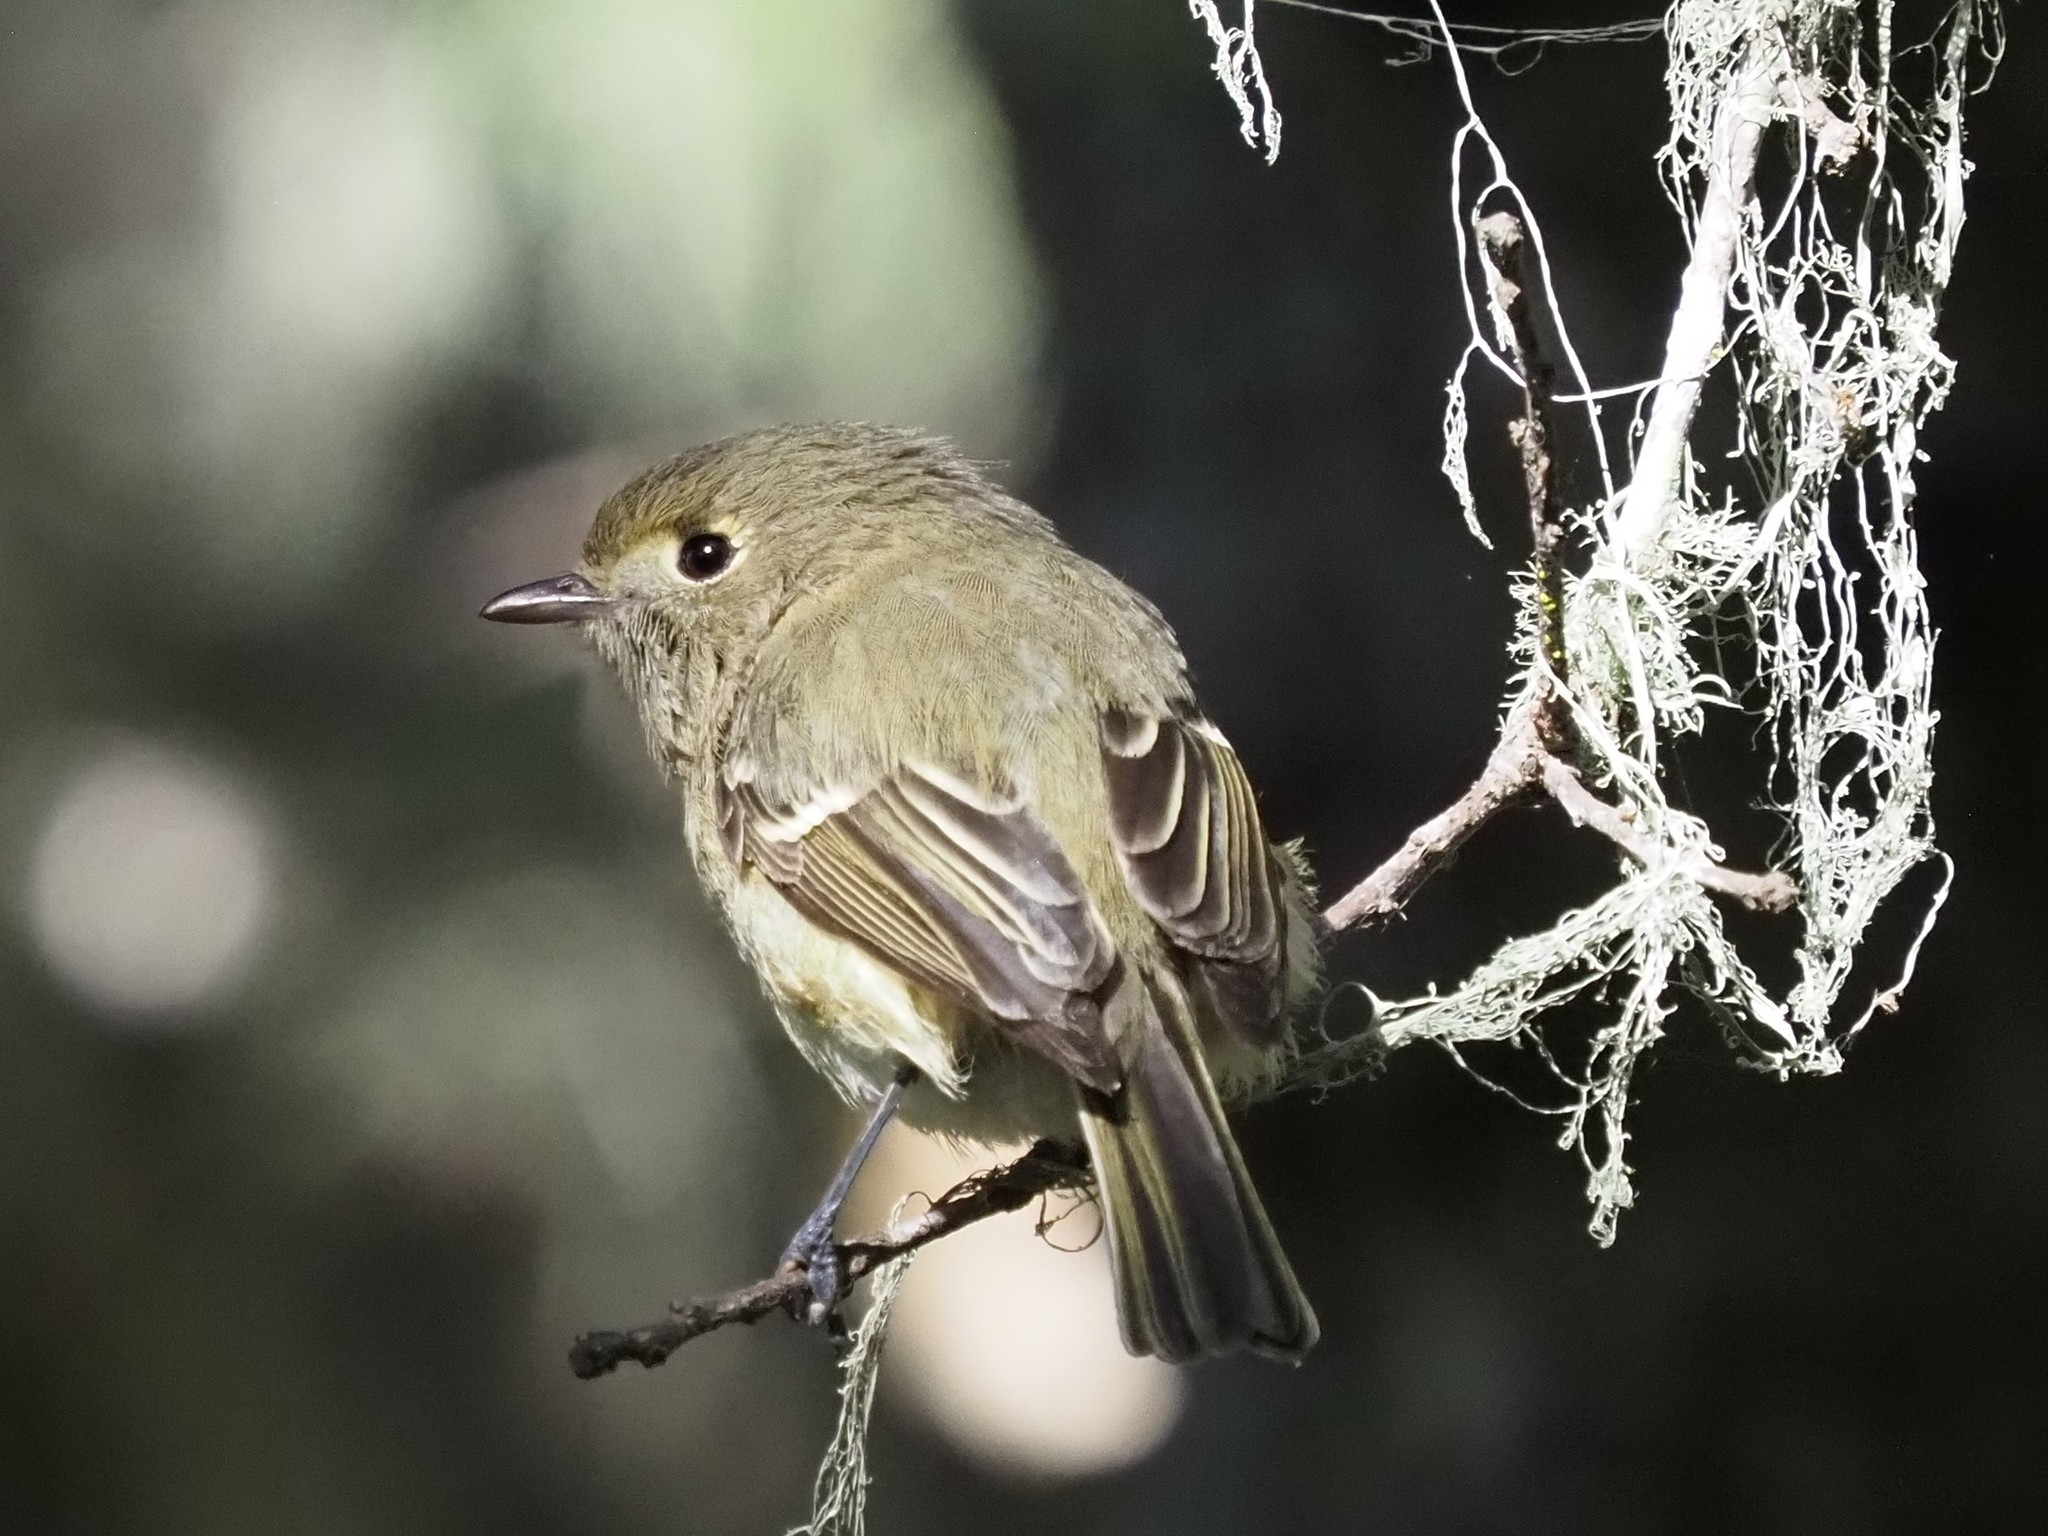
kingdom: Animalia
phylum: Chordata
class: Aves
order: Passeriformes
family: Vireonidae
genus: Vireo
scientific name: Vireo huttoni
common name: Hutton's vireo
